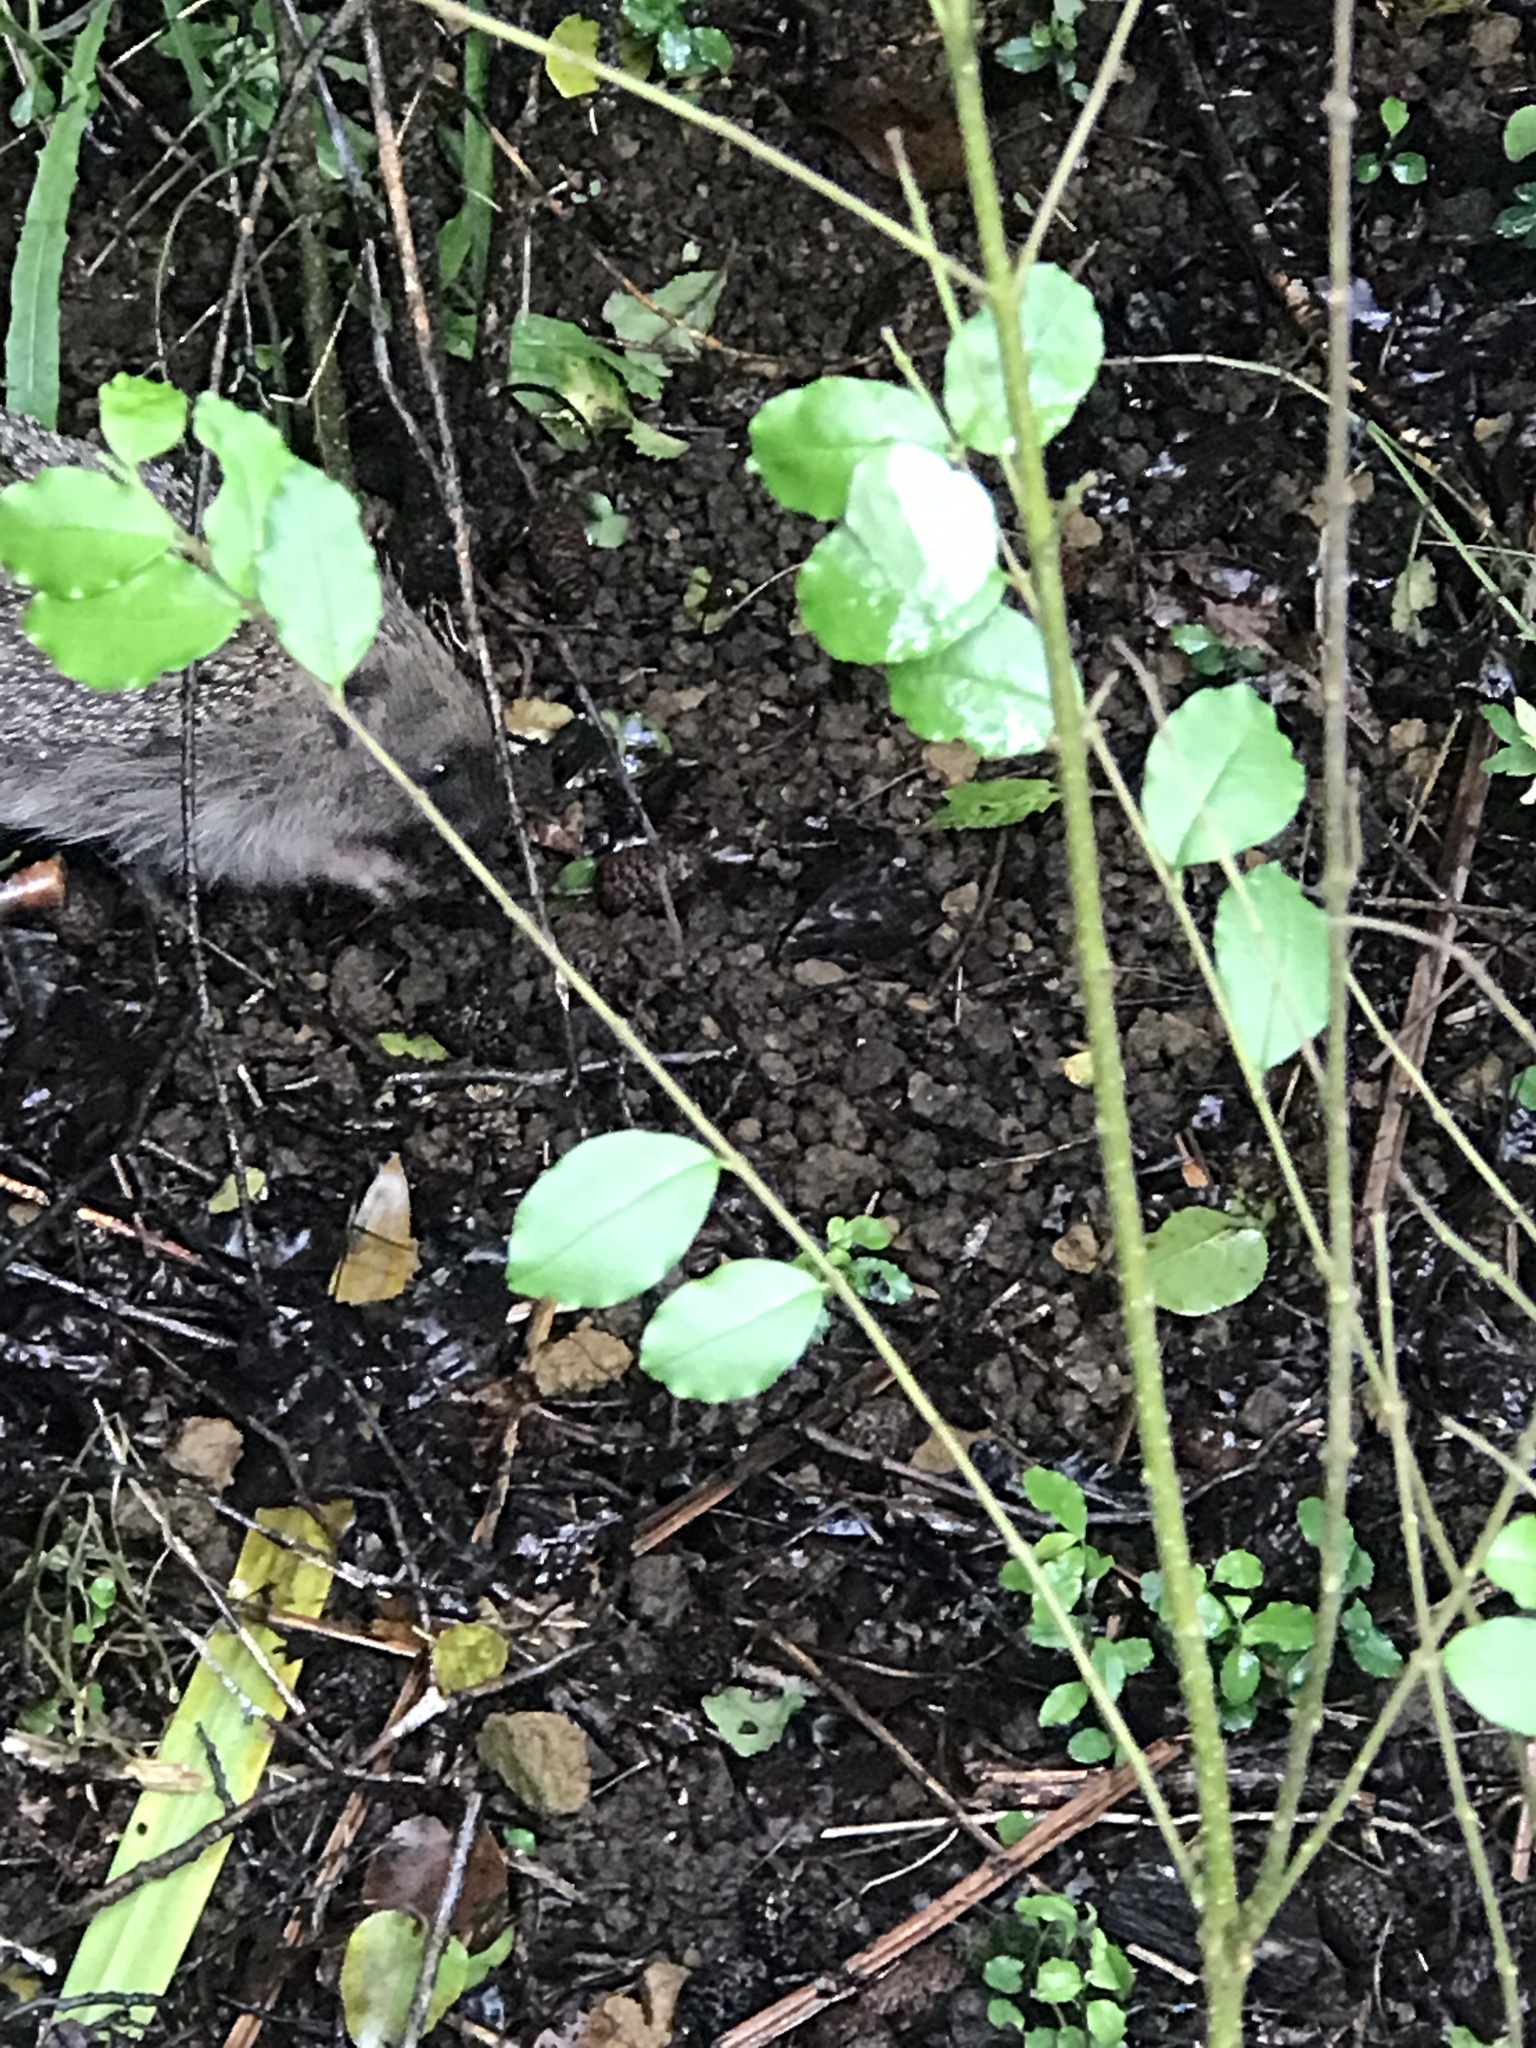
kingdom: Animalia
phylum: Chordata
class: Mammalia
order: Erinaceomorpha
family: Erinaceidae
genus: Erinaceus
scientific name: Erinaceus europaeus
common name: West european hedgehog
